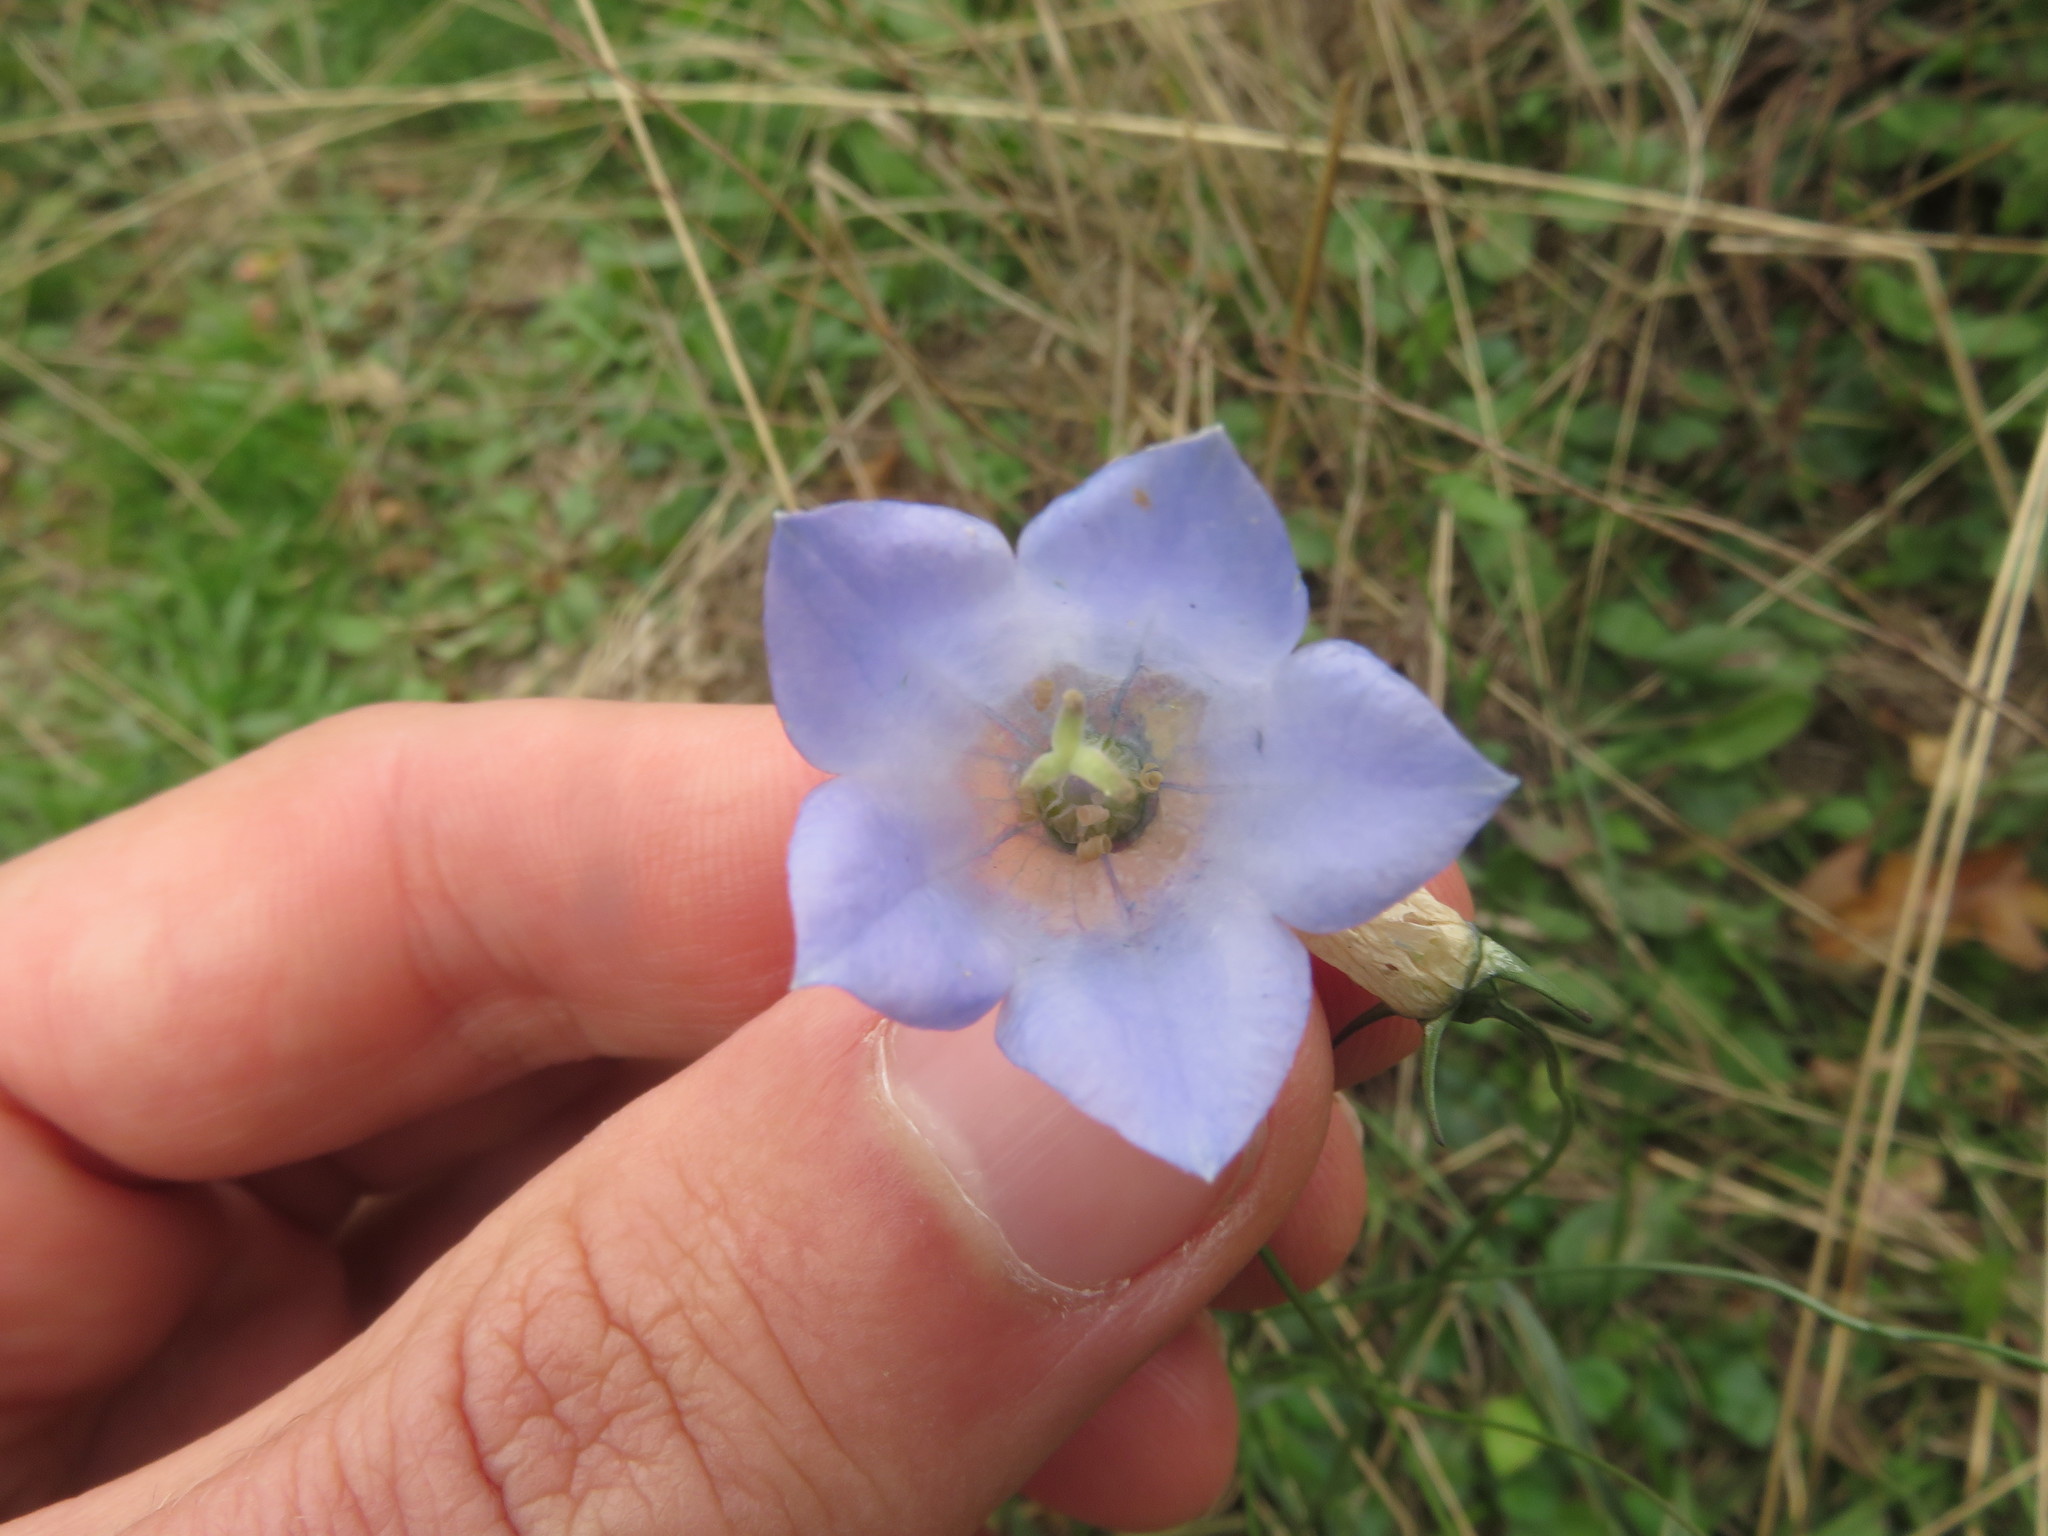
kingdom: Plantae
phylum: Tracheophyta
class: Magnoliopsida
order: Asterales
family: Campanulaceae
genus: Campanula
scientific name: Campanula rotundifolia
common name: Harebell
